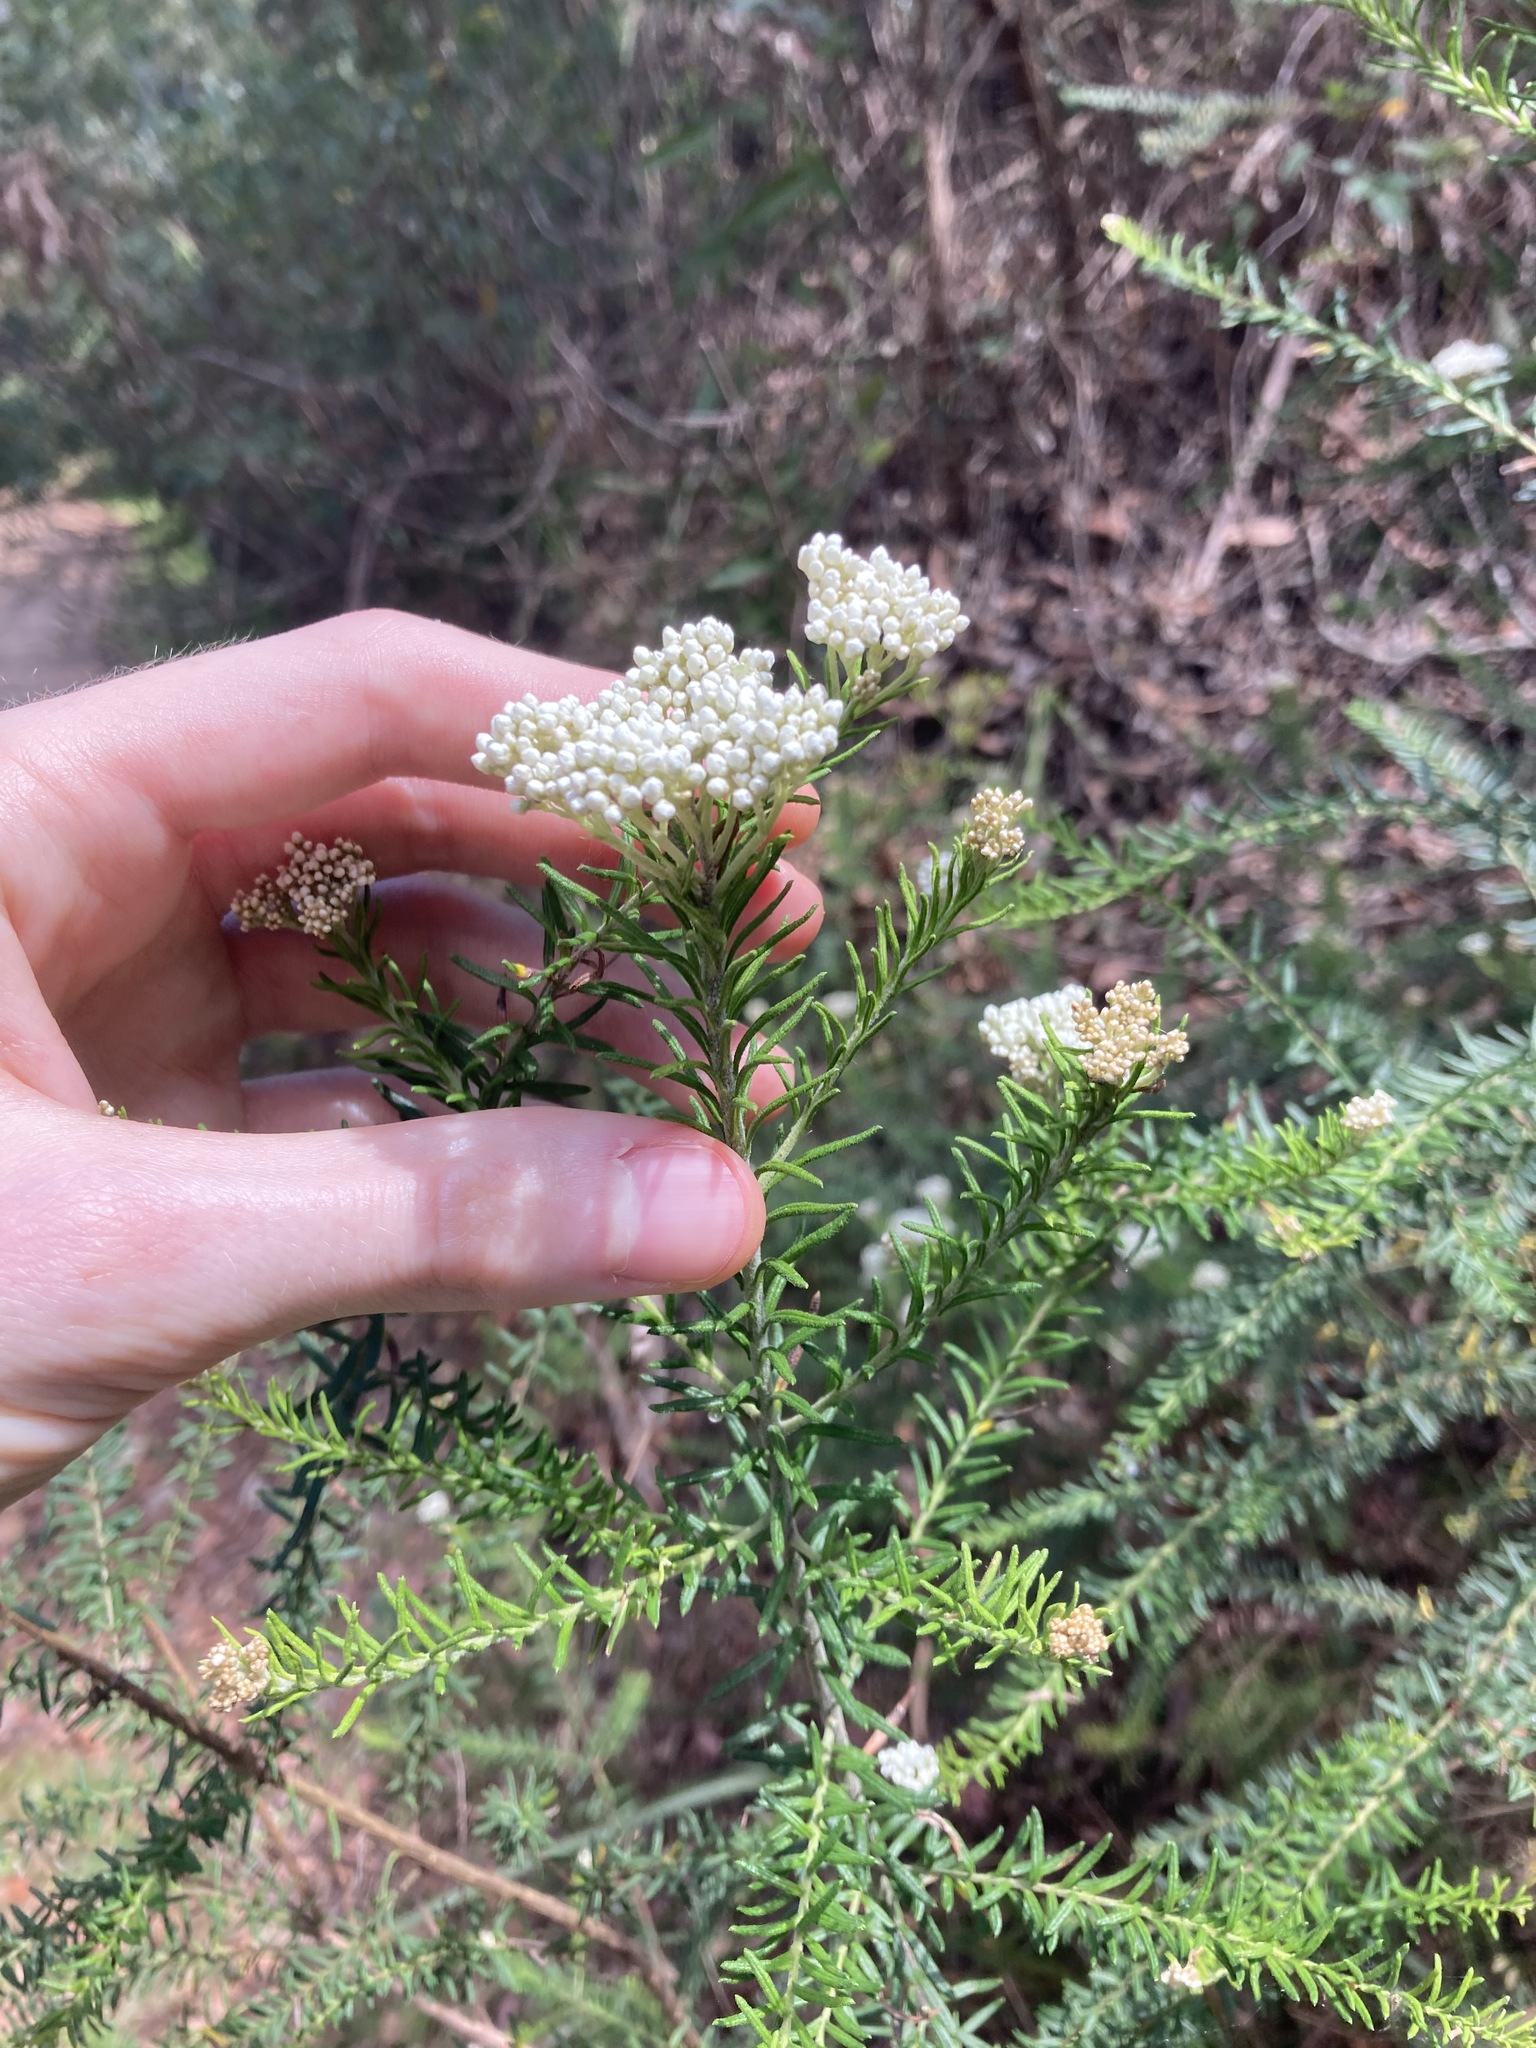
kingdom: Plantae
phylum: Tracheophyta
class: Magnoliopsida
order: Asterales
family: Asteraceae
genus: Ozothamnus
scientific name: Ozothamnus diosmifolius
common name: White-dogwood
